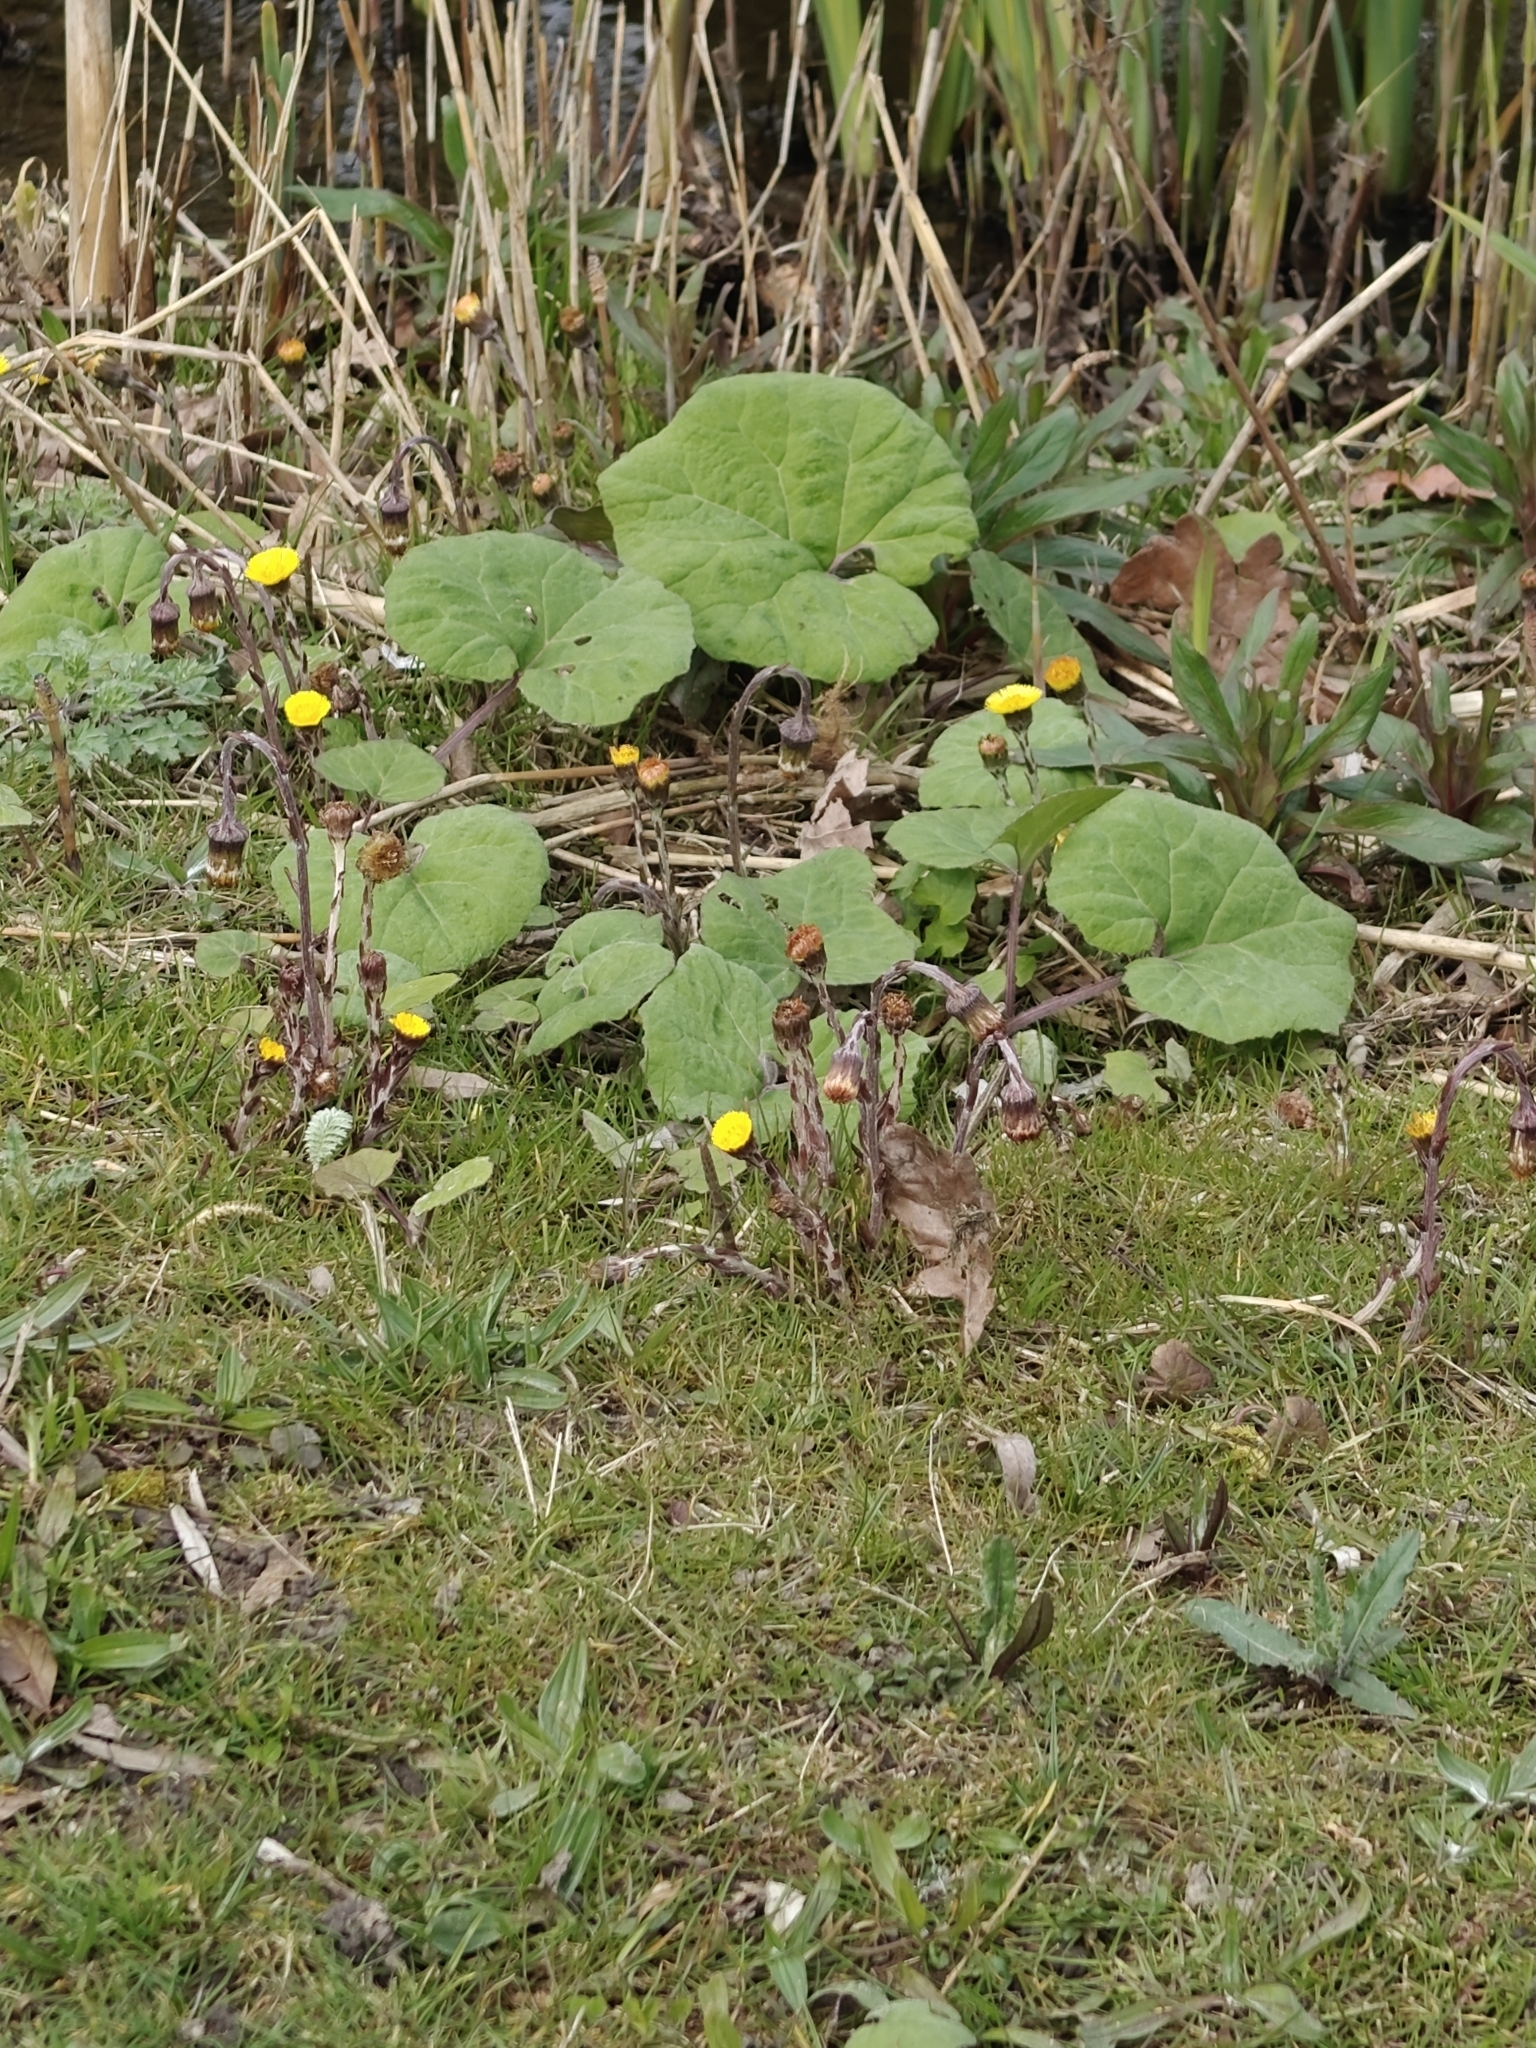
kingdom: Plantae
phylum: Tracheophyta
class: Magnoliopsida
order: Asterales
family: Asteraceae
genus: Tussilago
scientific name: Tussilago farfara
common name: Coltsfoot
